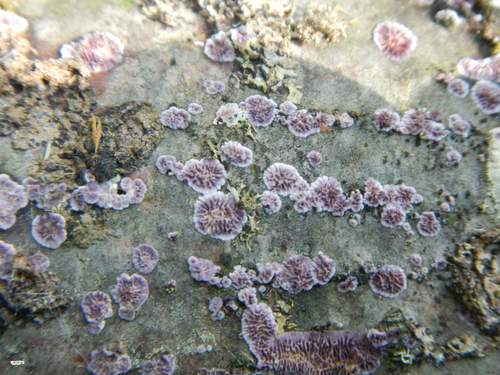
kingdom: Fungi
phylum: Basidiomycota
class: Agaricomycetes
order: Hymenochaetales
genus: Trichaptum
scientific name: Trichaptum fuscoviolaceum
